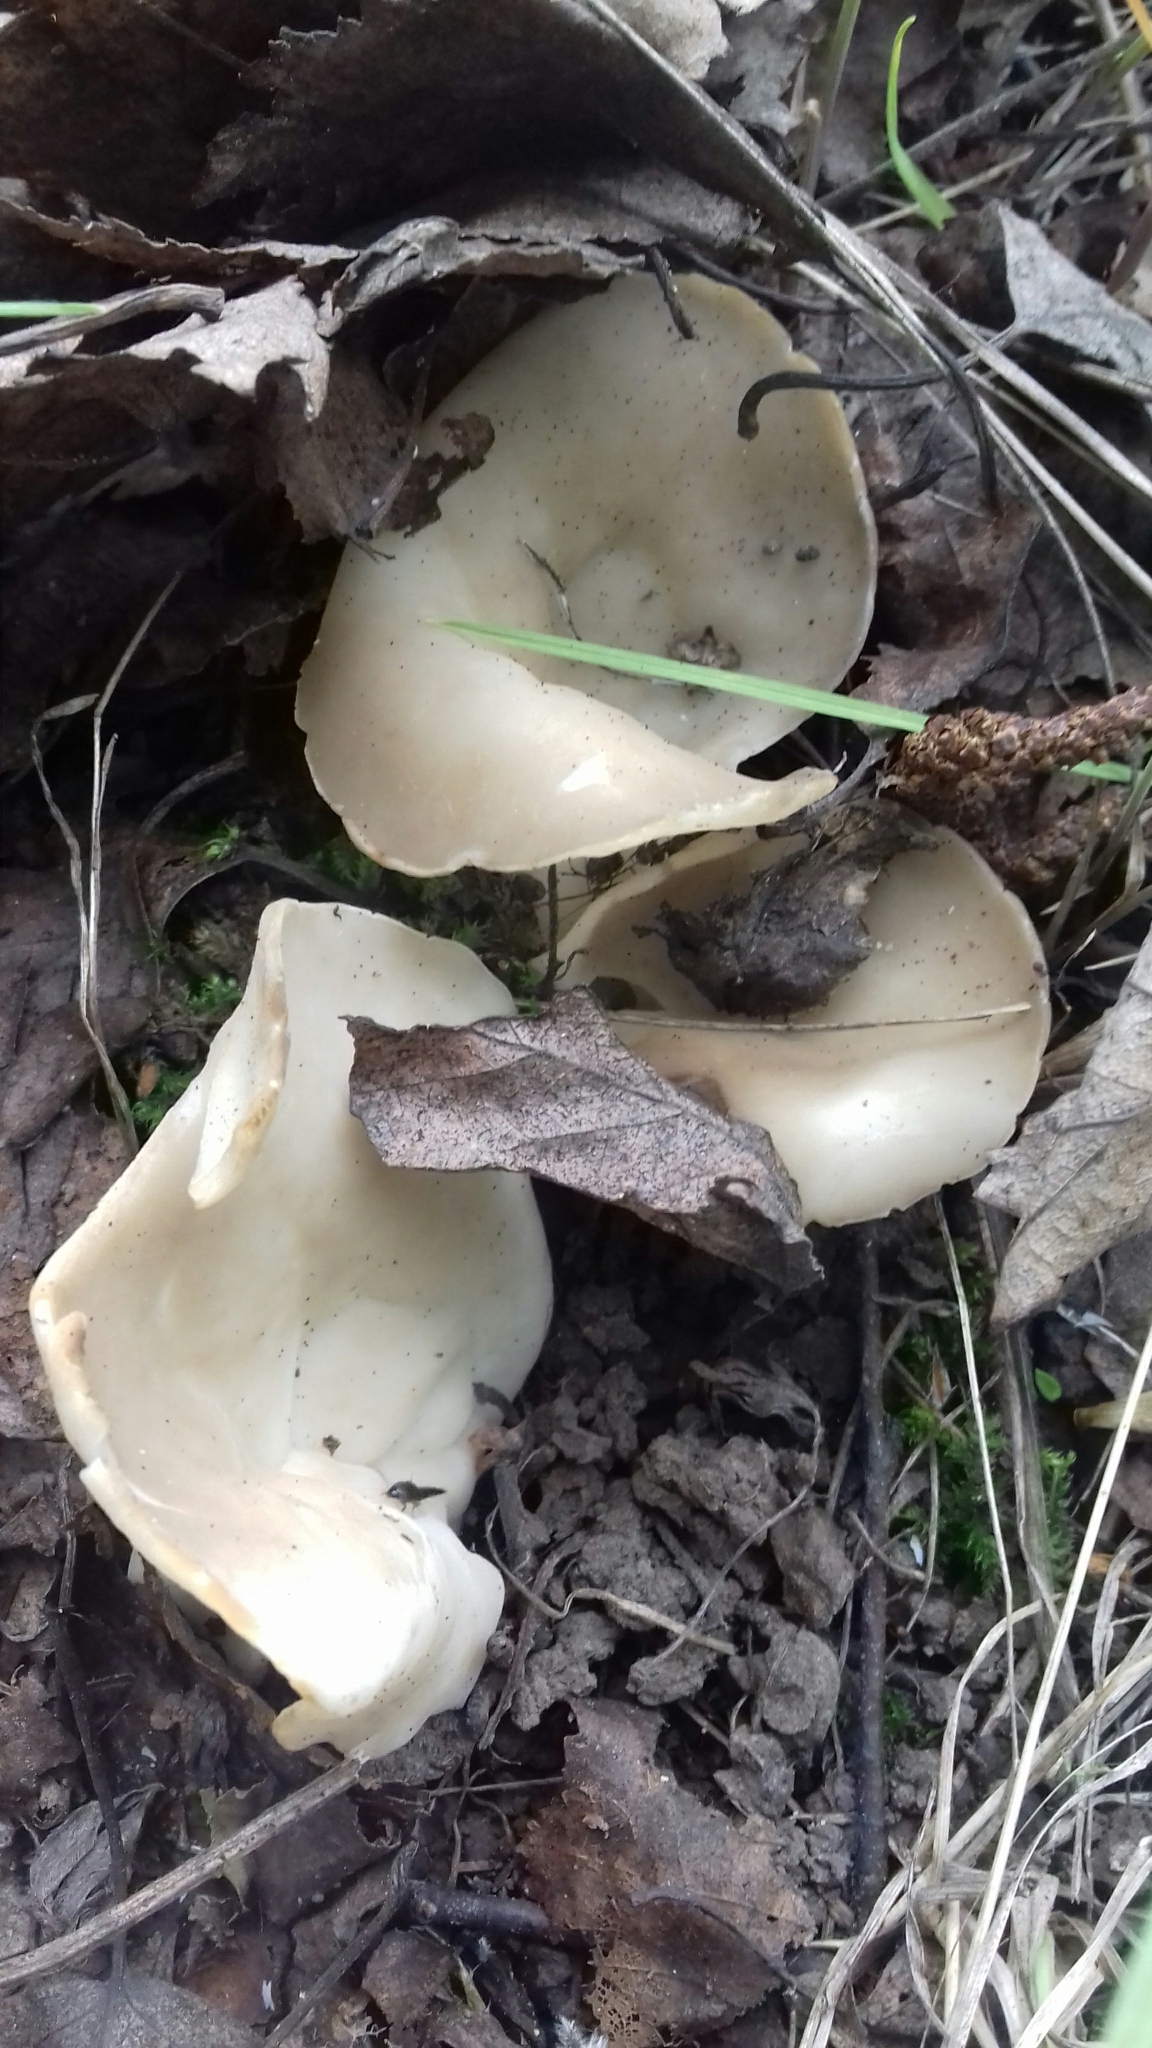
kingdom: Fungi
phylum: Ascomycota
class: Pezizomycetes
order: Pezizales
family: Helvellaceae
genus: Helvella
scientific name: Helvella costifera
